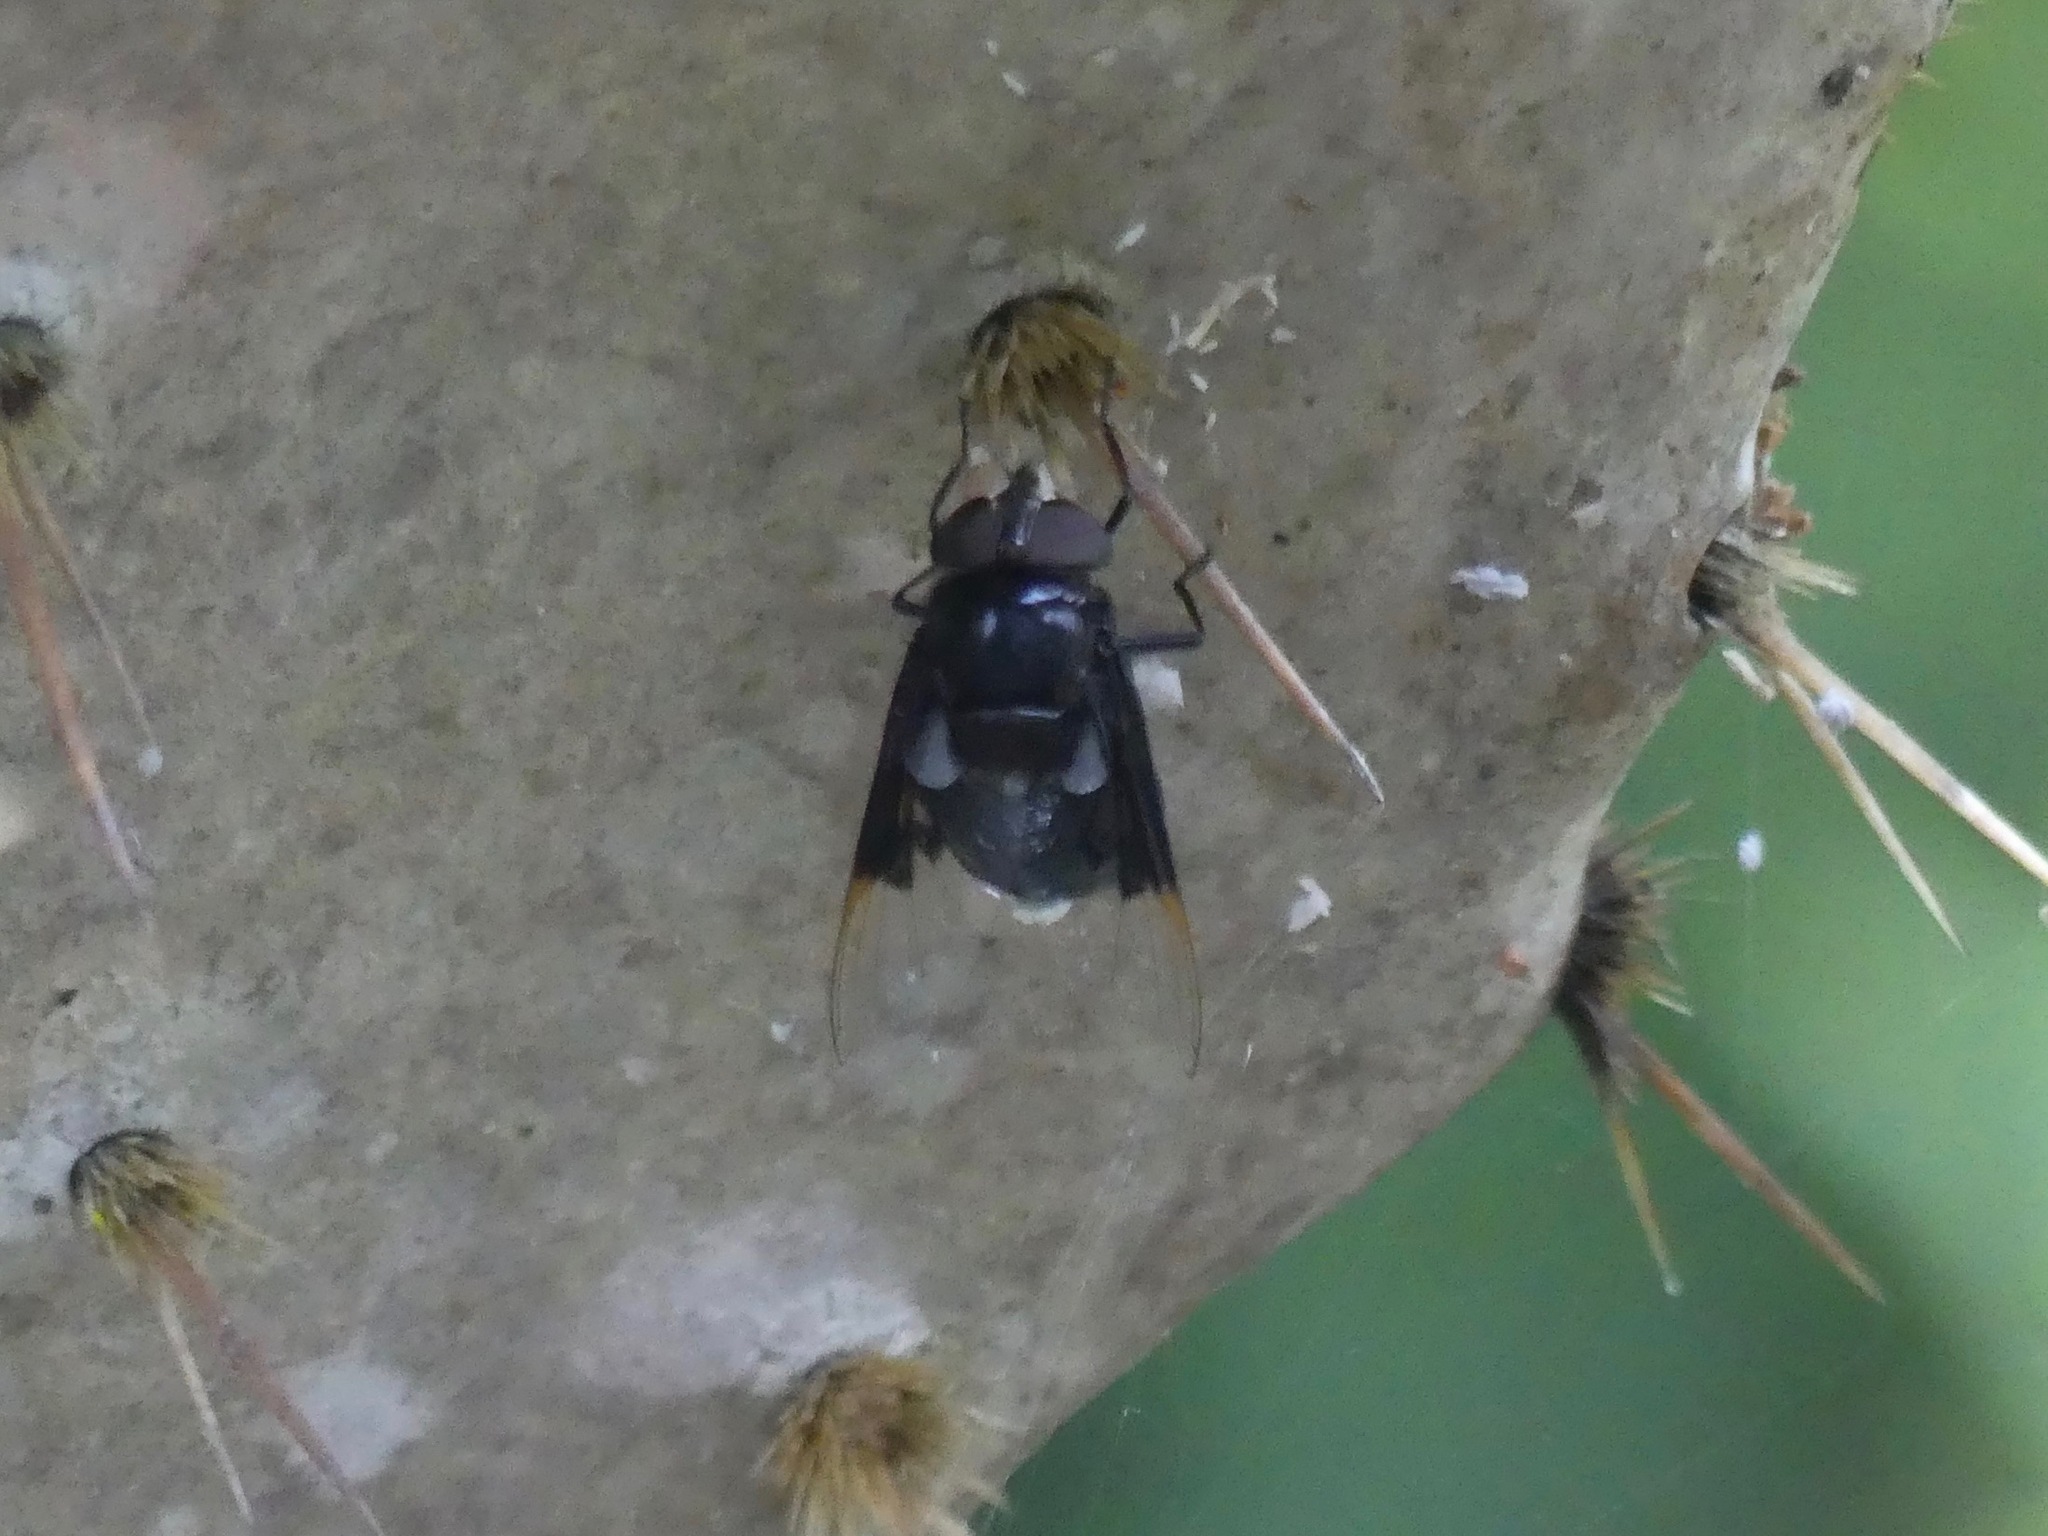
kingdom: Animalia
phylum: Arthropoda
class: Insecta
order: Diptera
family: Syrphidae
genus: Copestylum
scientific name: Copestylum mexicanum
